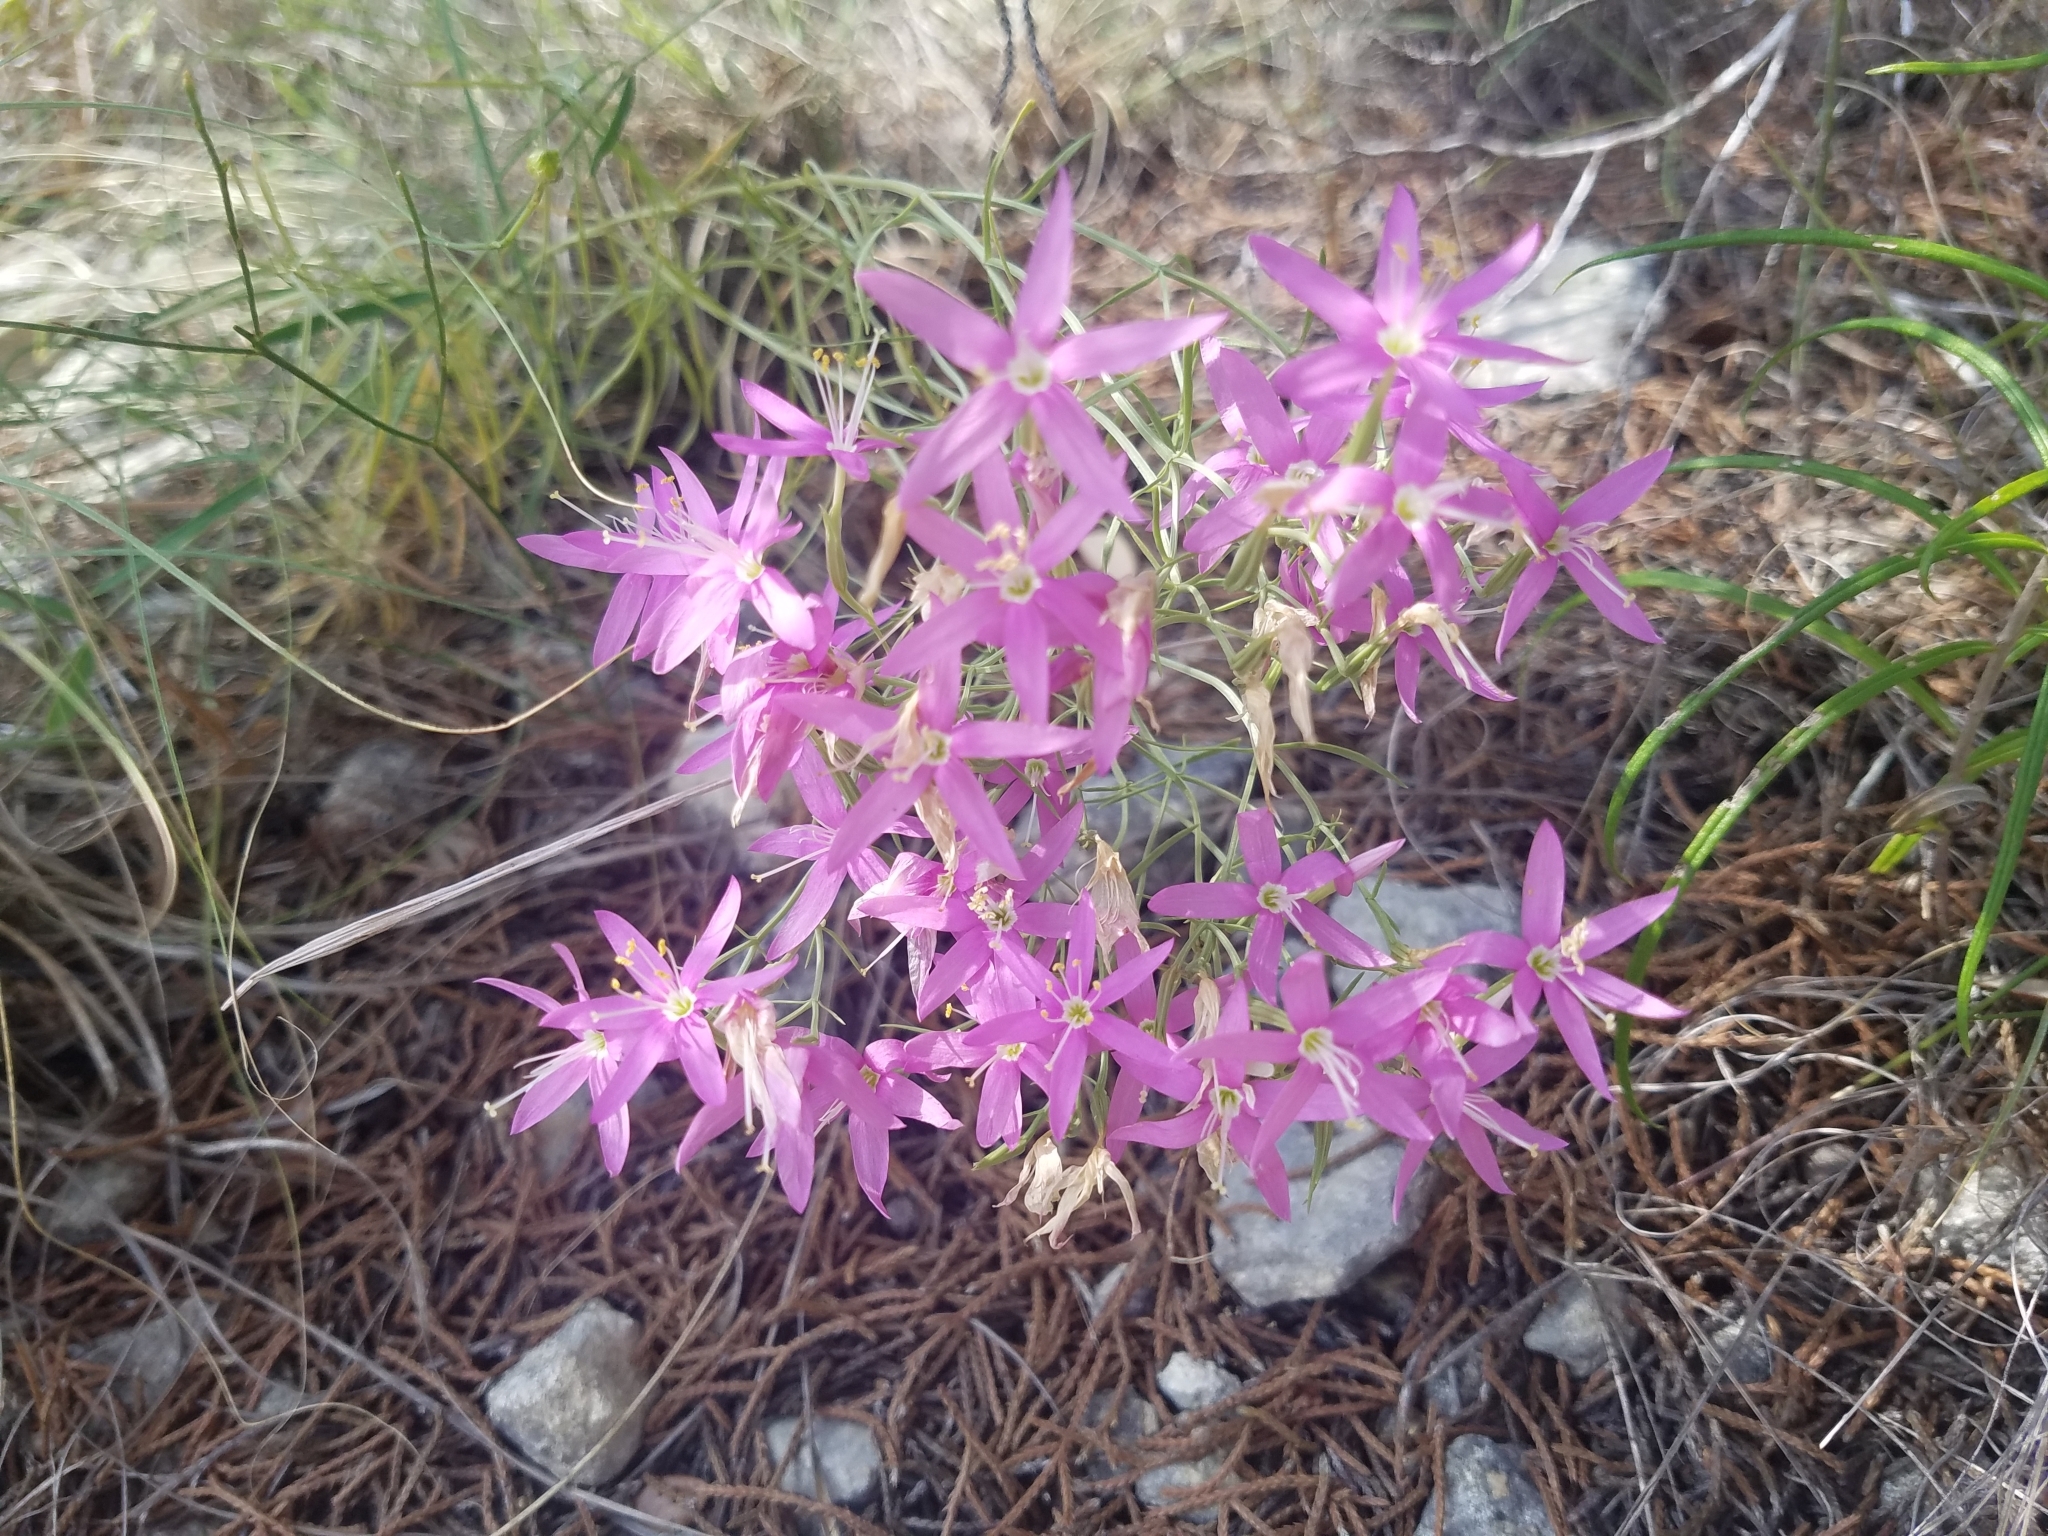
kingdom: Plantae
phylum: Tracheophyta
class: Magnoliopsida
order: Gentianales
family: Gentianaceae
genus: Zeltnera
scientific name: Zeltnera beyrichii
